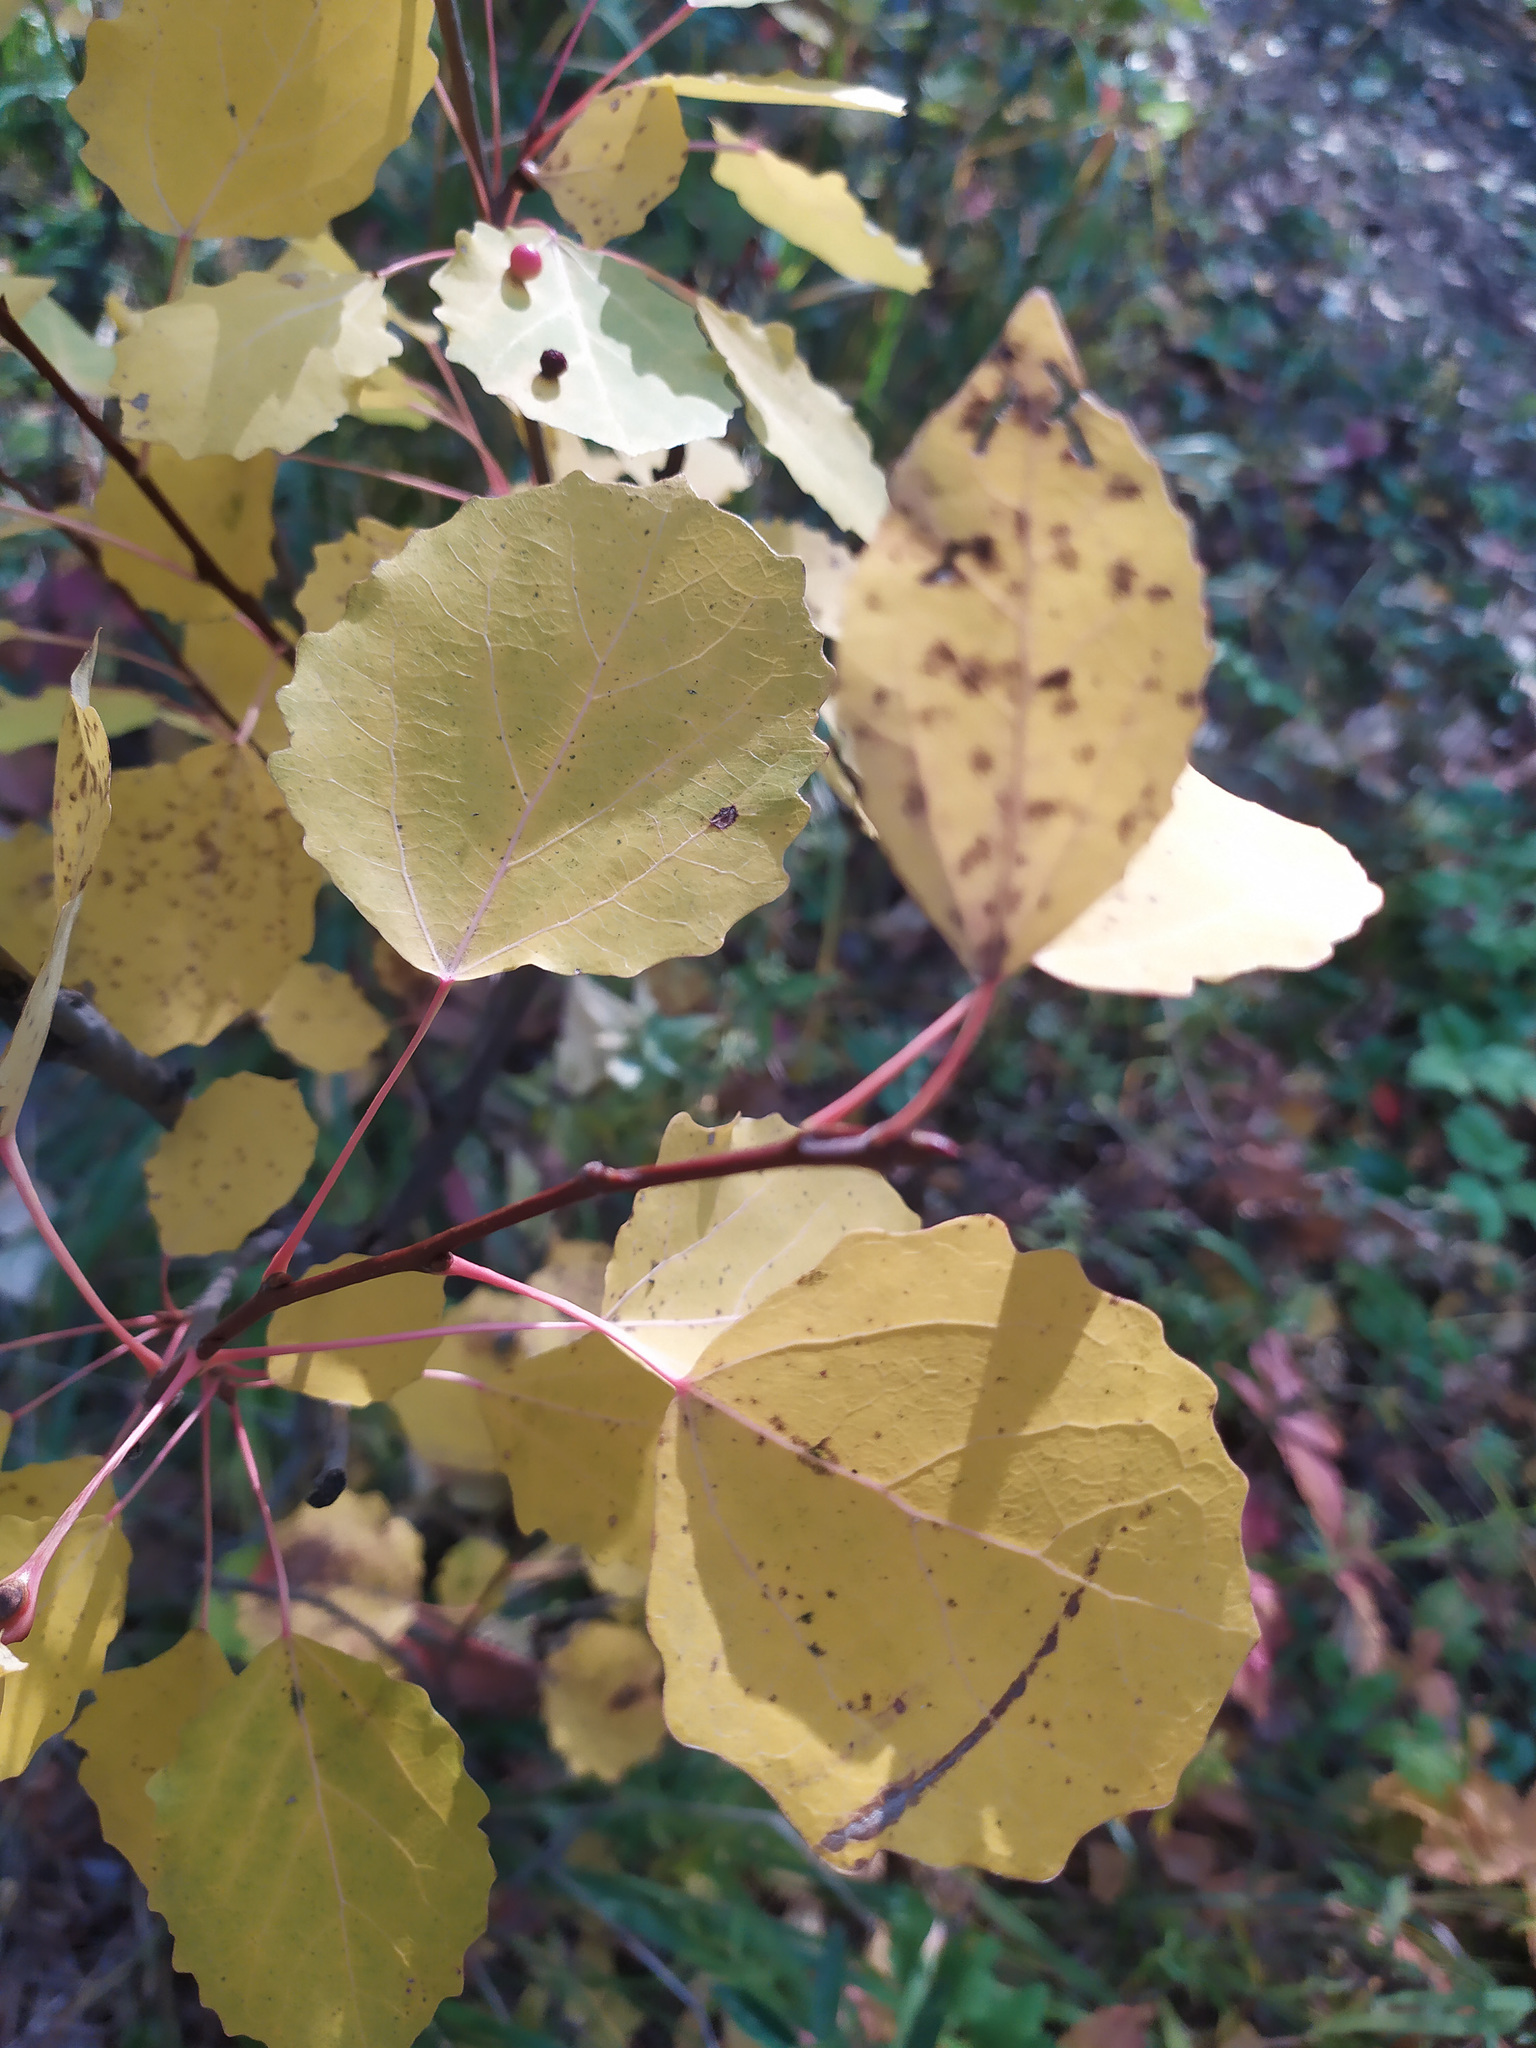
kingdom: Plantae
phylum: Tracheophyta
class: Magnoliopsida
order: Malpighiales
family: Salicaceae
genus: Populus
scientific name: Populus tremula
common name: European aspen
